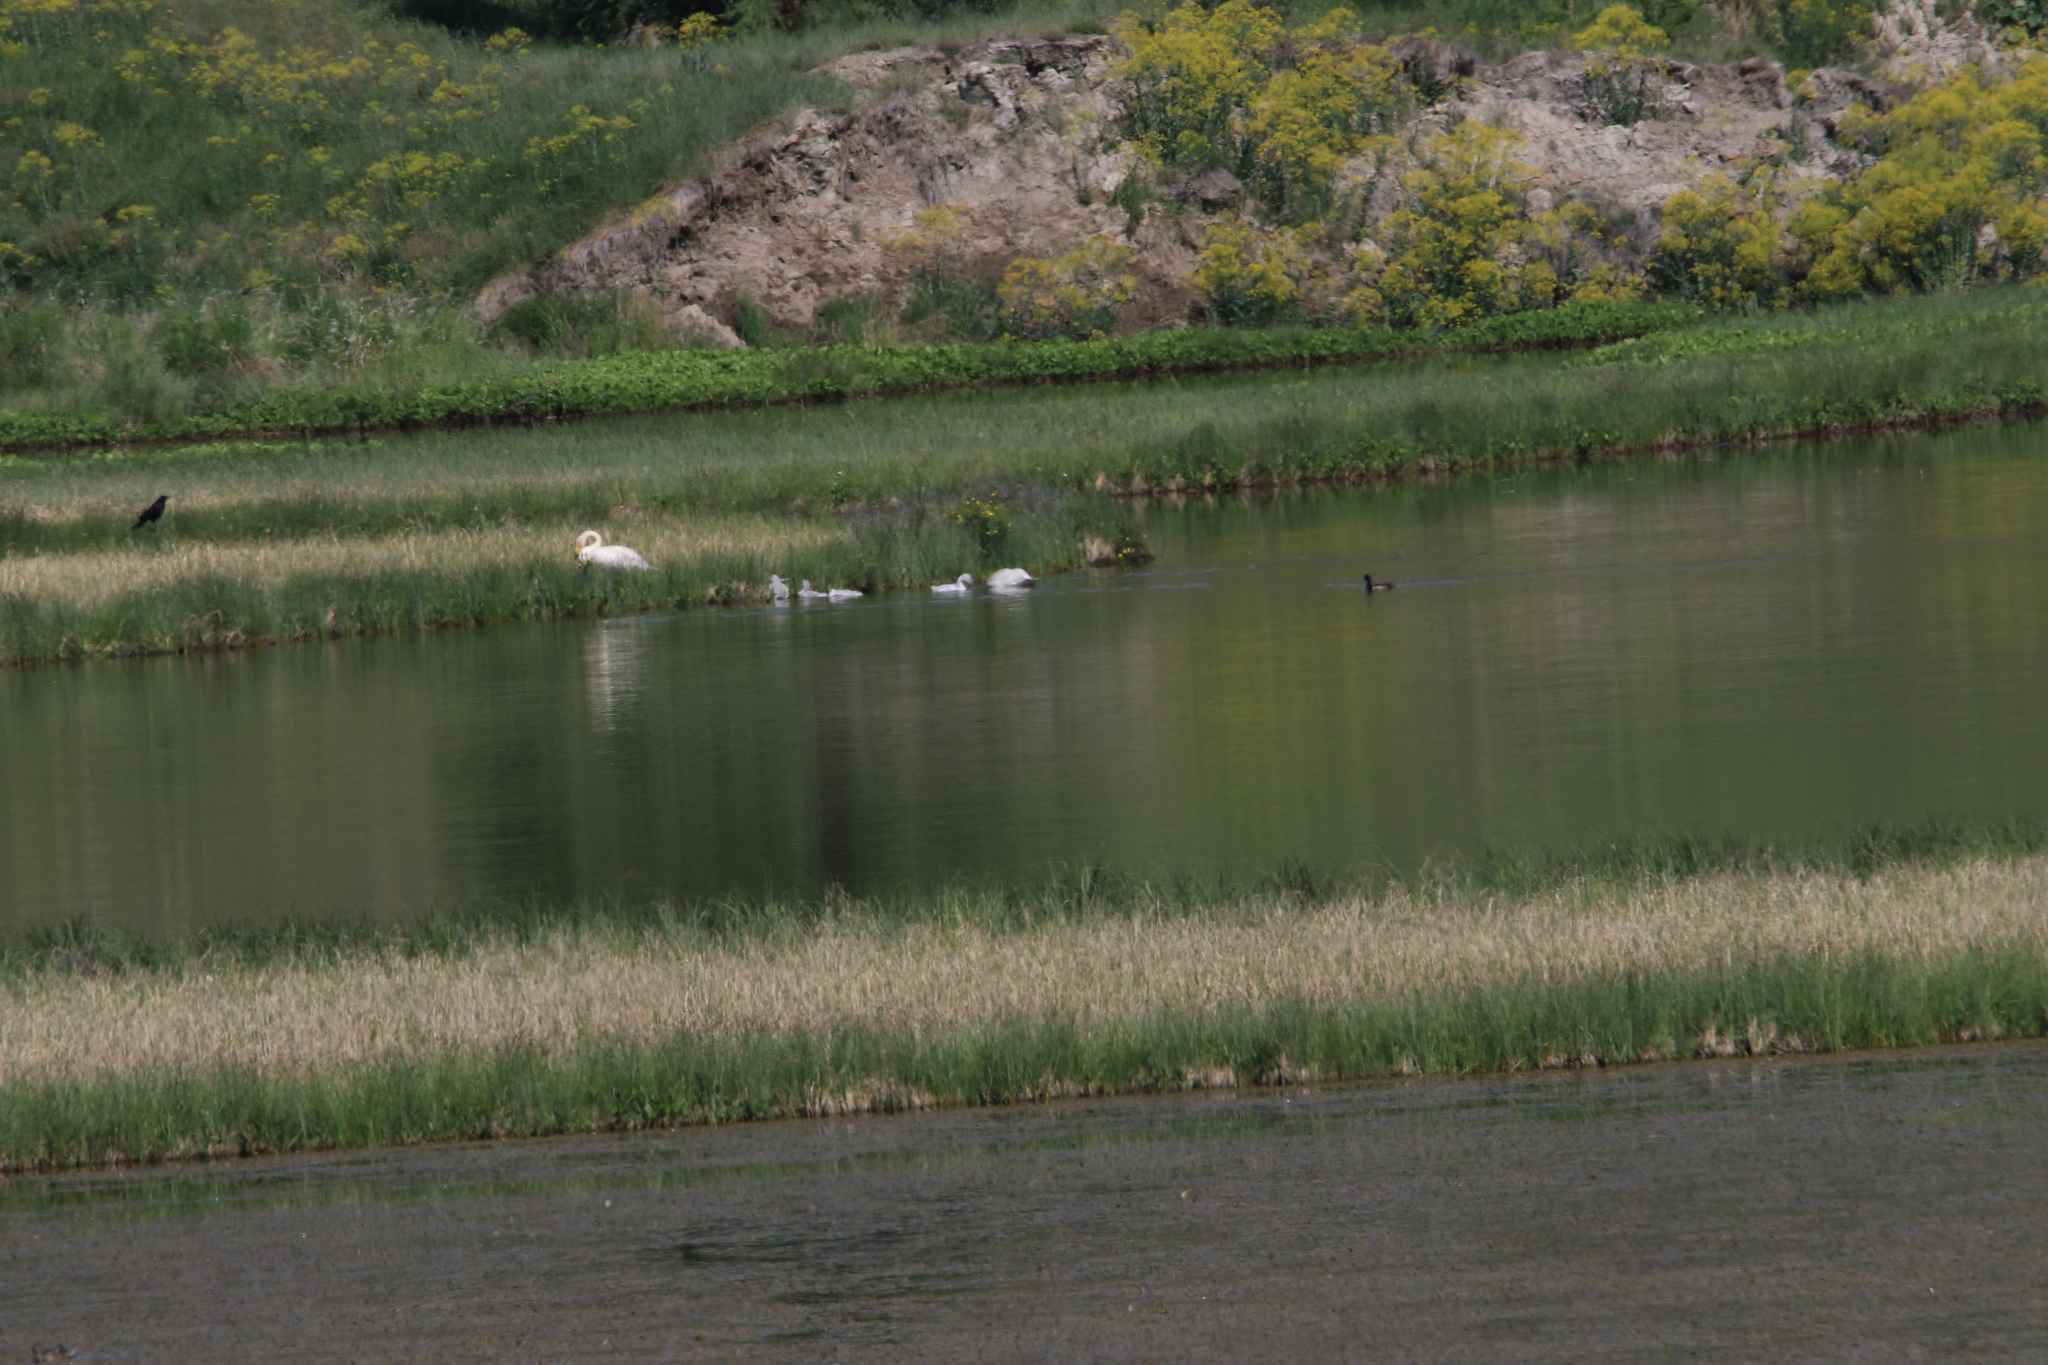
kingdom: Animalia
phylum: Chordata
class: Aves
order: Anseriformes
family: Anatidae
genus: Cygnus
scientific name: Cygnus cygnus
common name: Whooper swan
